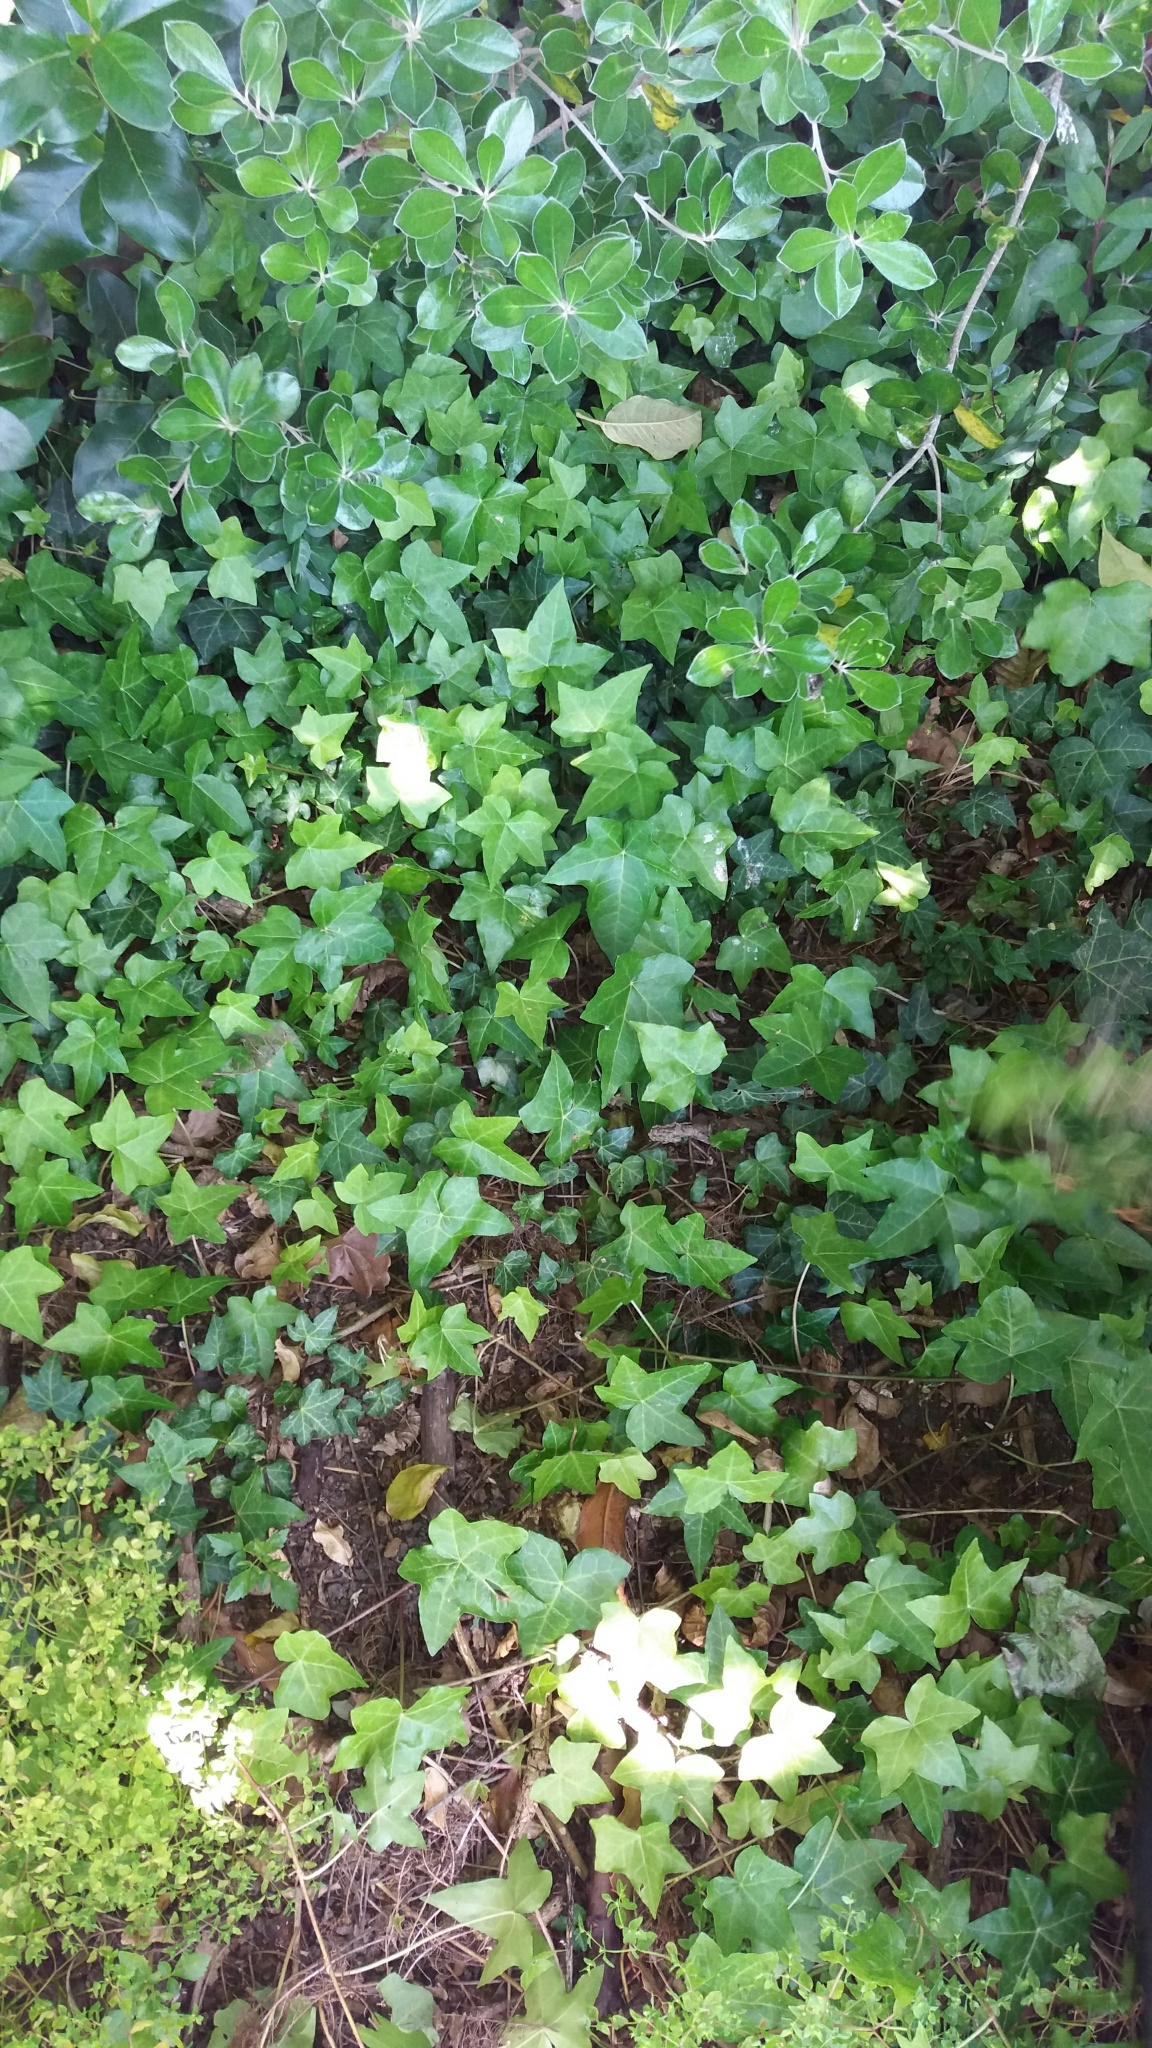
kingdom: Plantae
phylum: Tracheophyta
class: Magnoliopsida
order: Apiales
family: Araliaceae
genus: Hedera
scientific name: Hedera helix
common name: Ivy
